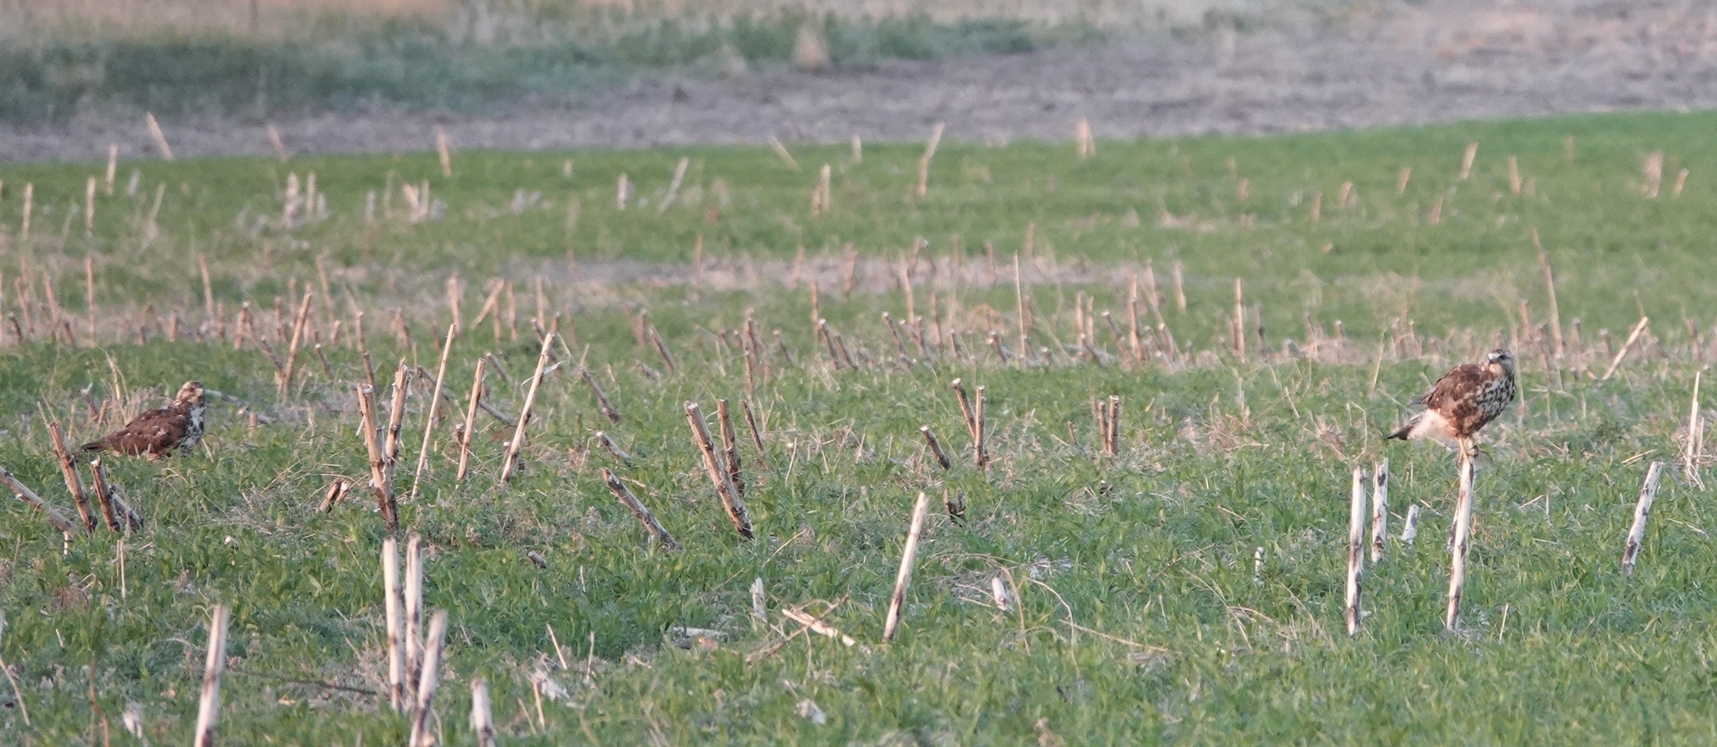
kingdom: Animalia
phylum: Chordata
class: Aves
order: Accipitriformes
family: Accipitridae
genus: Buteo
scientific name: Buteo swainsoni
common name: Swainson's hawk
